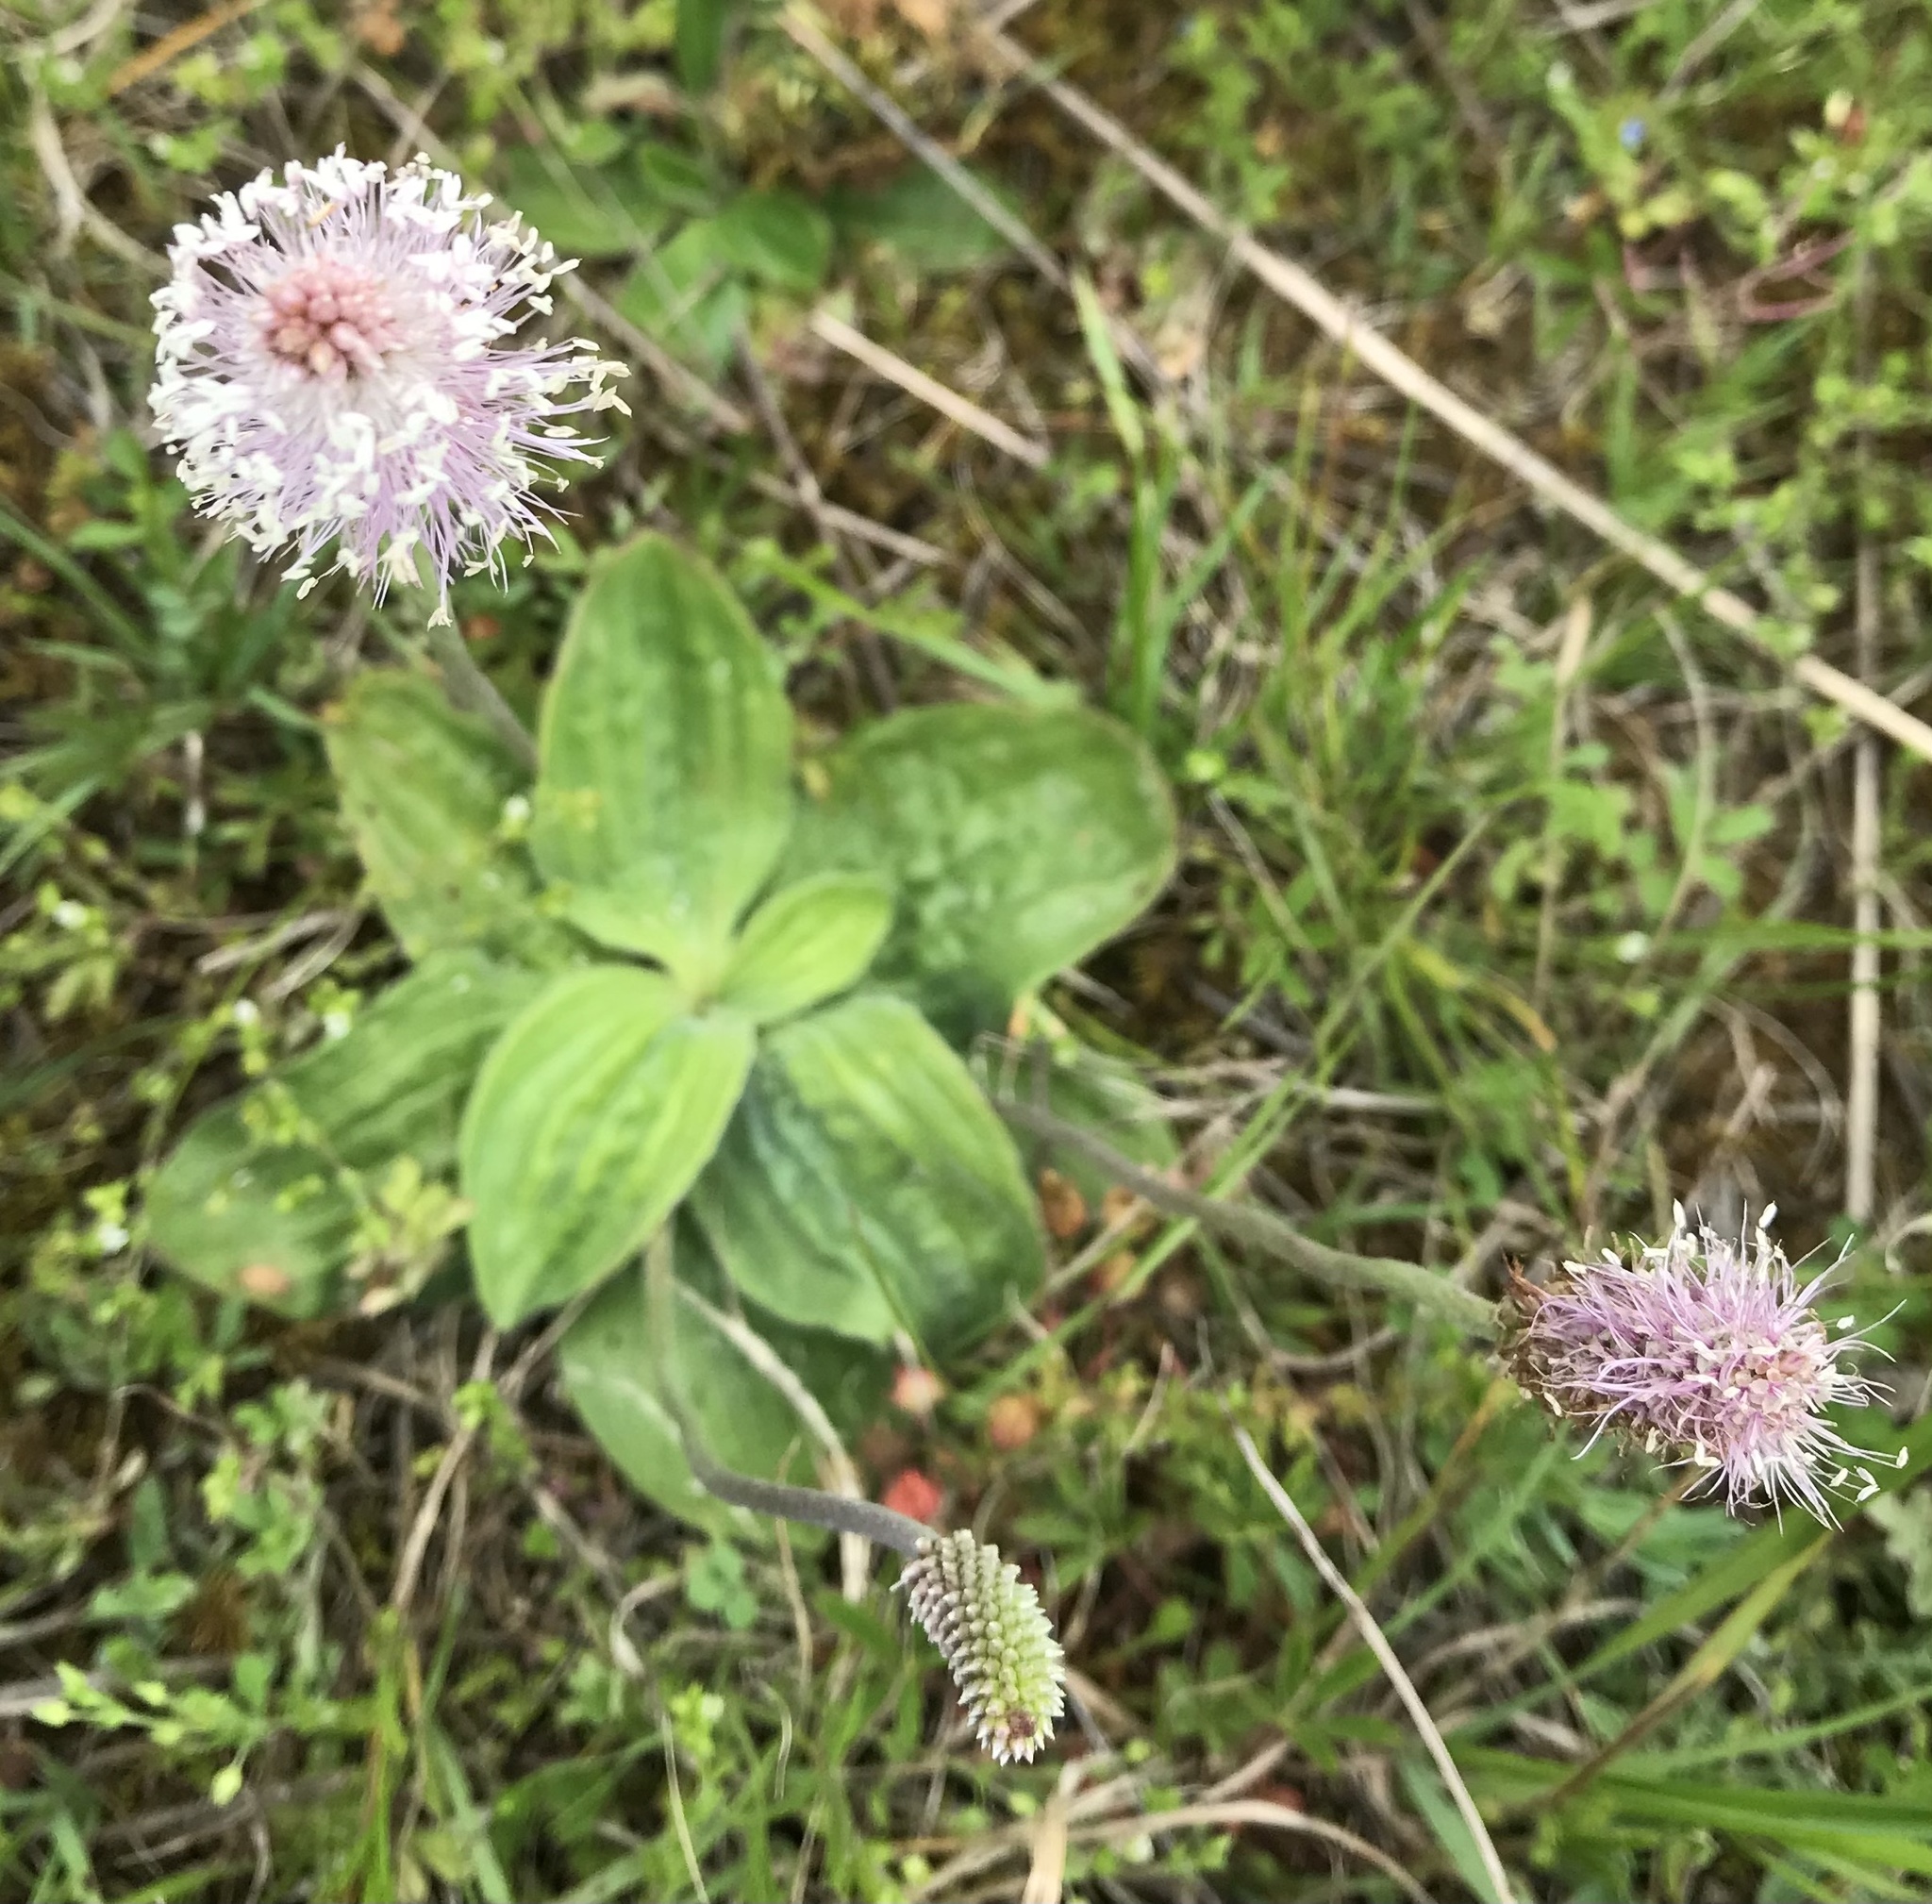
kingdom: Plantae
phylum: Tracheophyta
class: Magnoliopsida
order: Lamiales
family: Plantaginaceae
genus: Plantago
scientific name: Plantago media
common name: Hoary plantain
